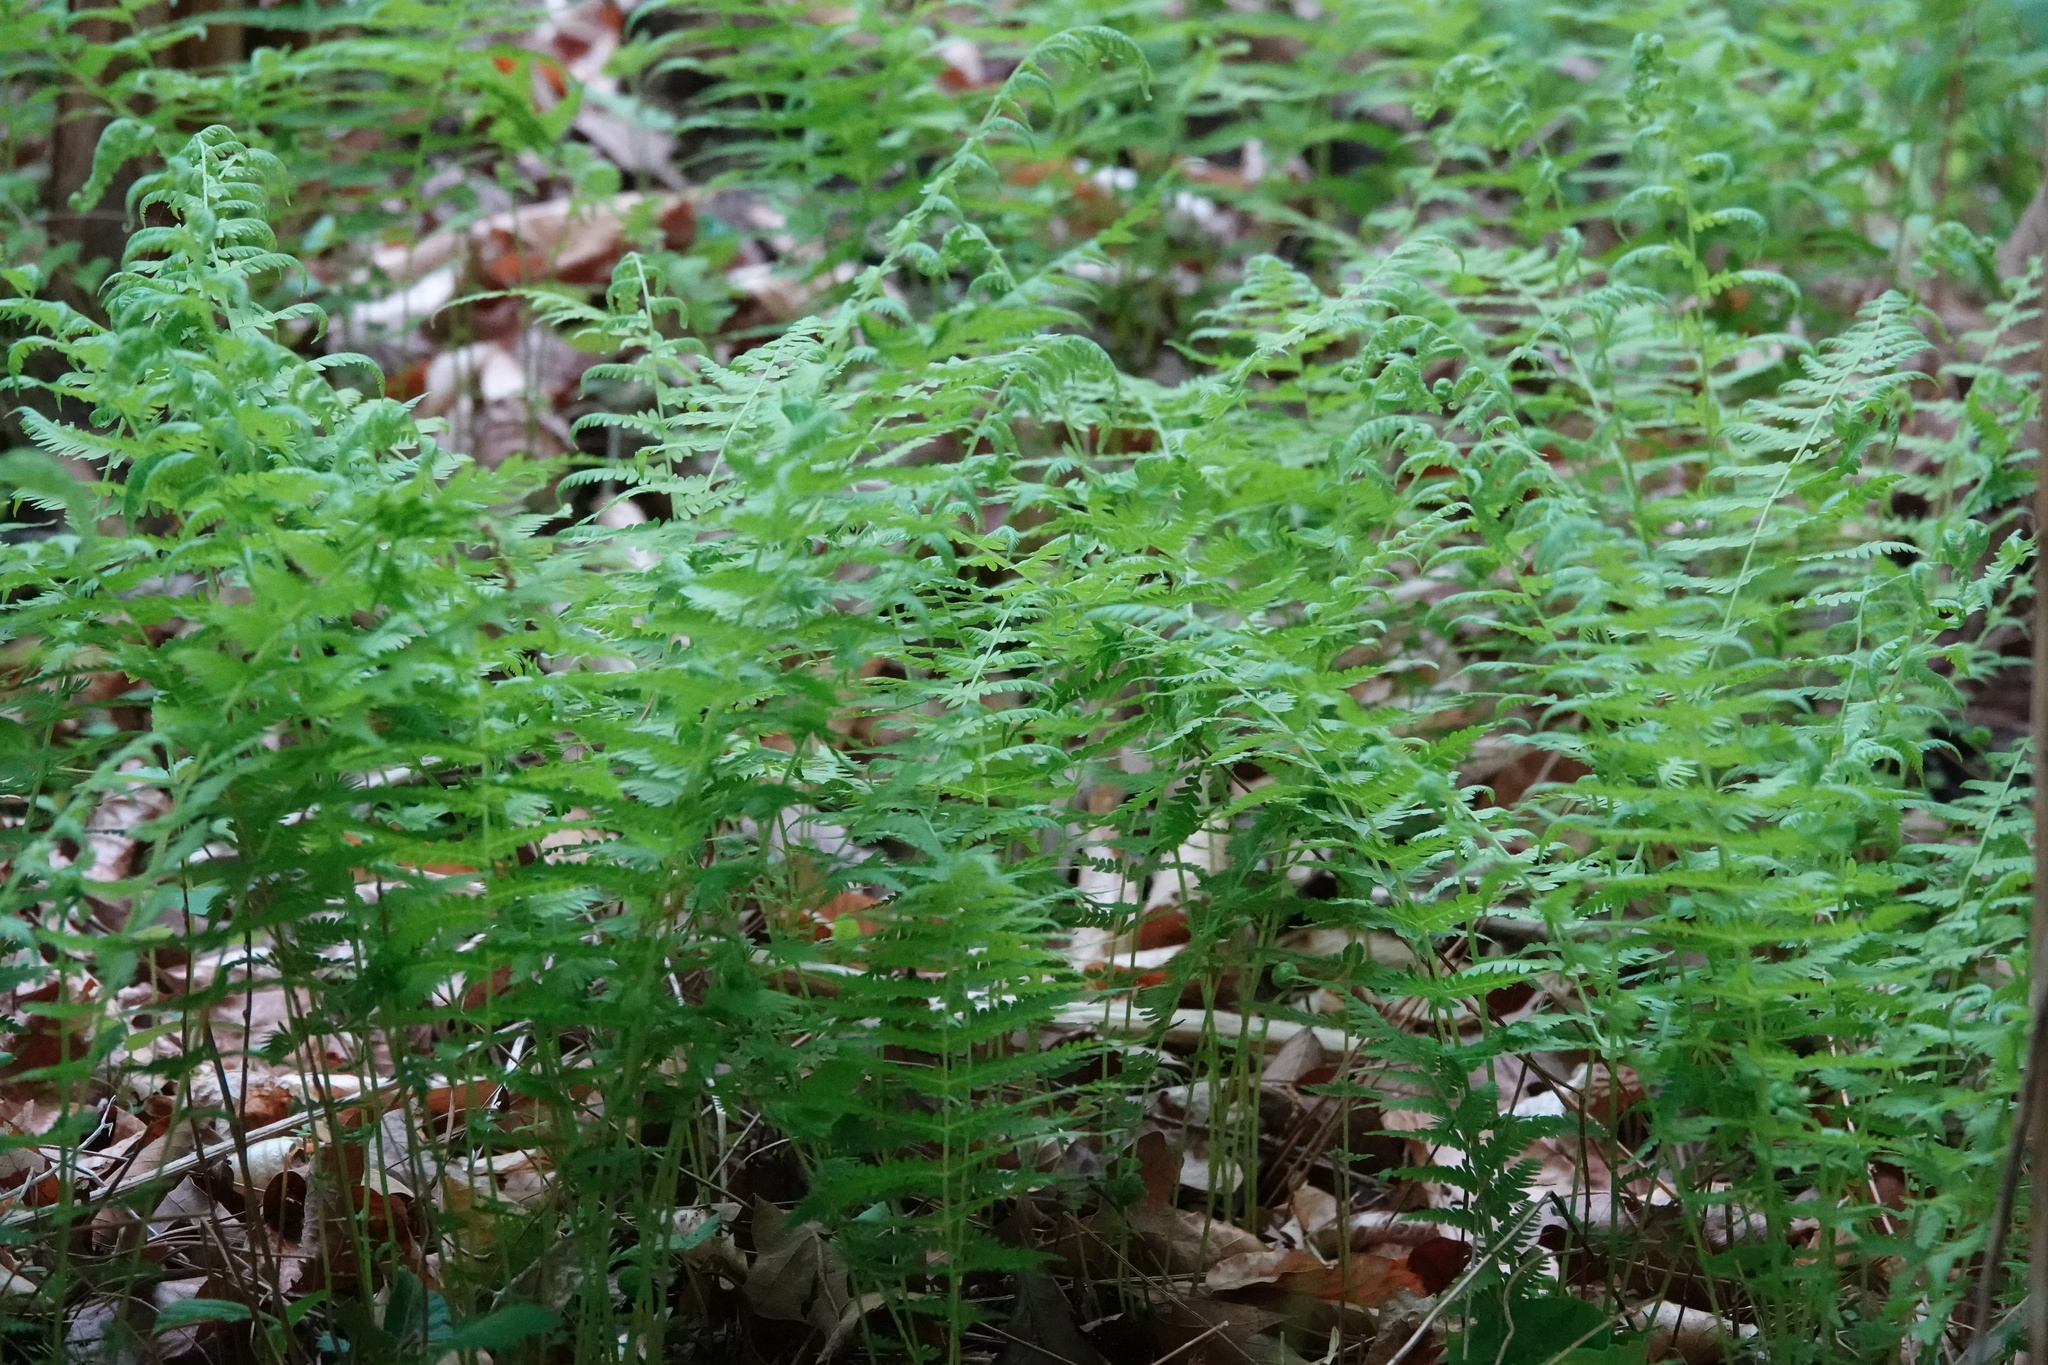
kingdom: Plantae
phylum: Tracheophyta
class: Polypodiopsida
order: Polypodiales
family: Thelypteridaceae
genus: Amauropelta
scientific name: Amauropelta noveboracensis
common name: New york fern
